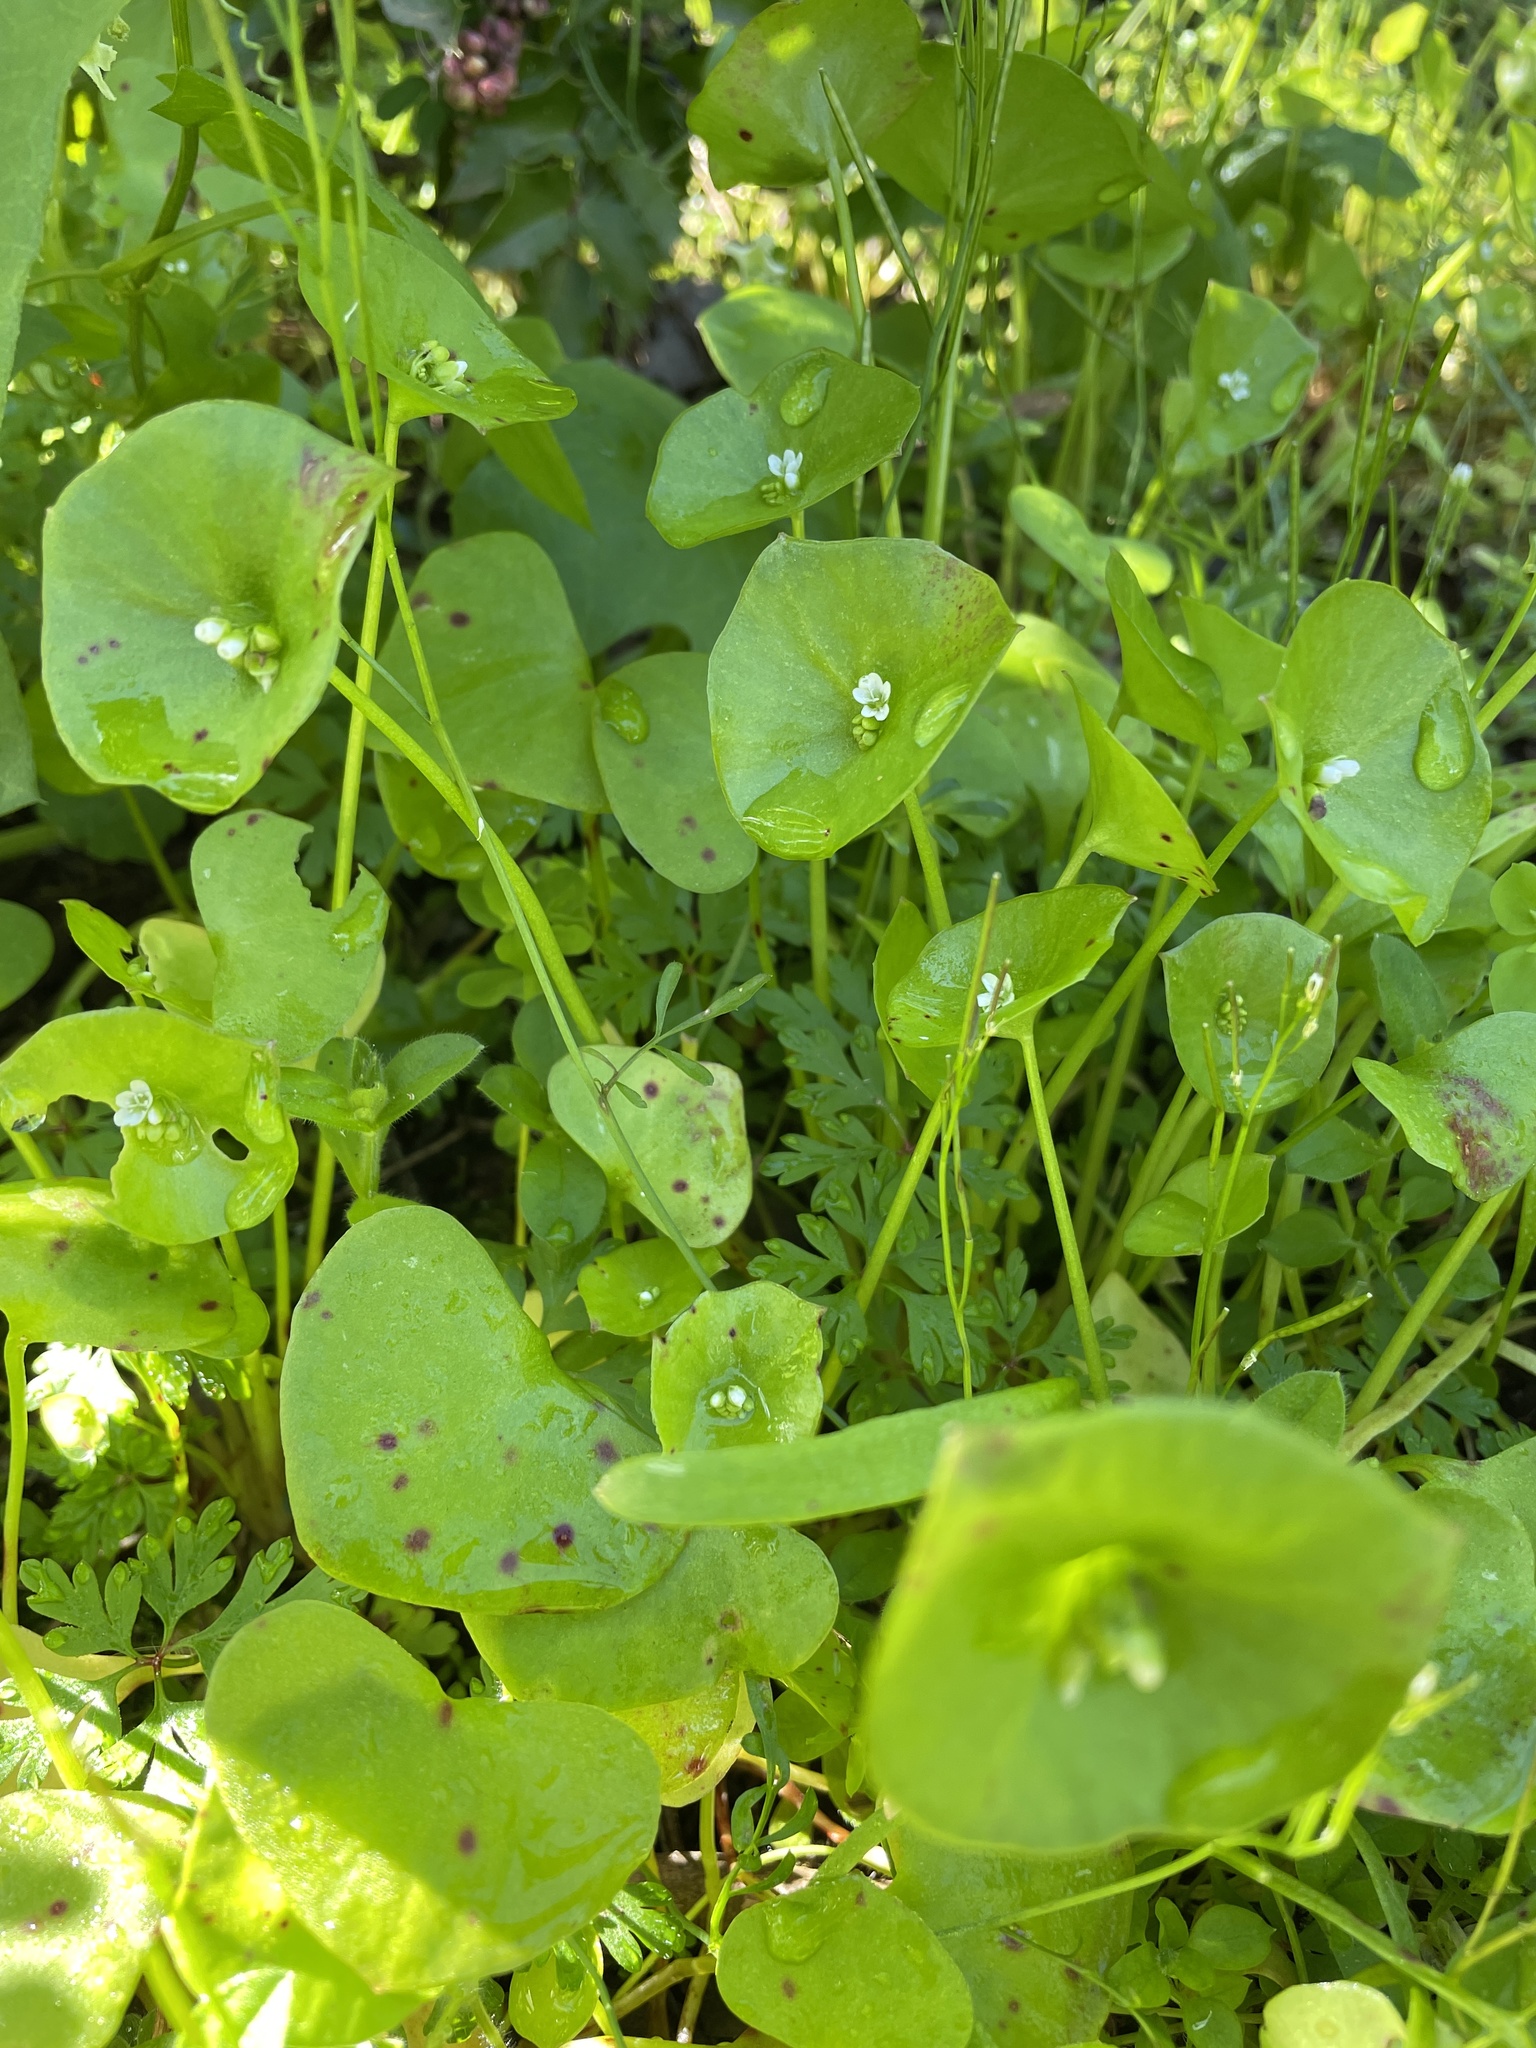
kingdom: Plantae
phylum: Tracheophyta
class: Magnoliopsida
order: Caryophyllales
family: Montiaceae
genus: Claytonia
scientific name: Claytonia perfoliata
